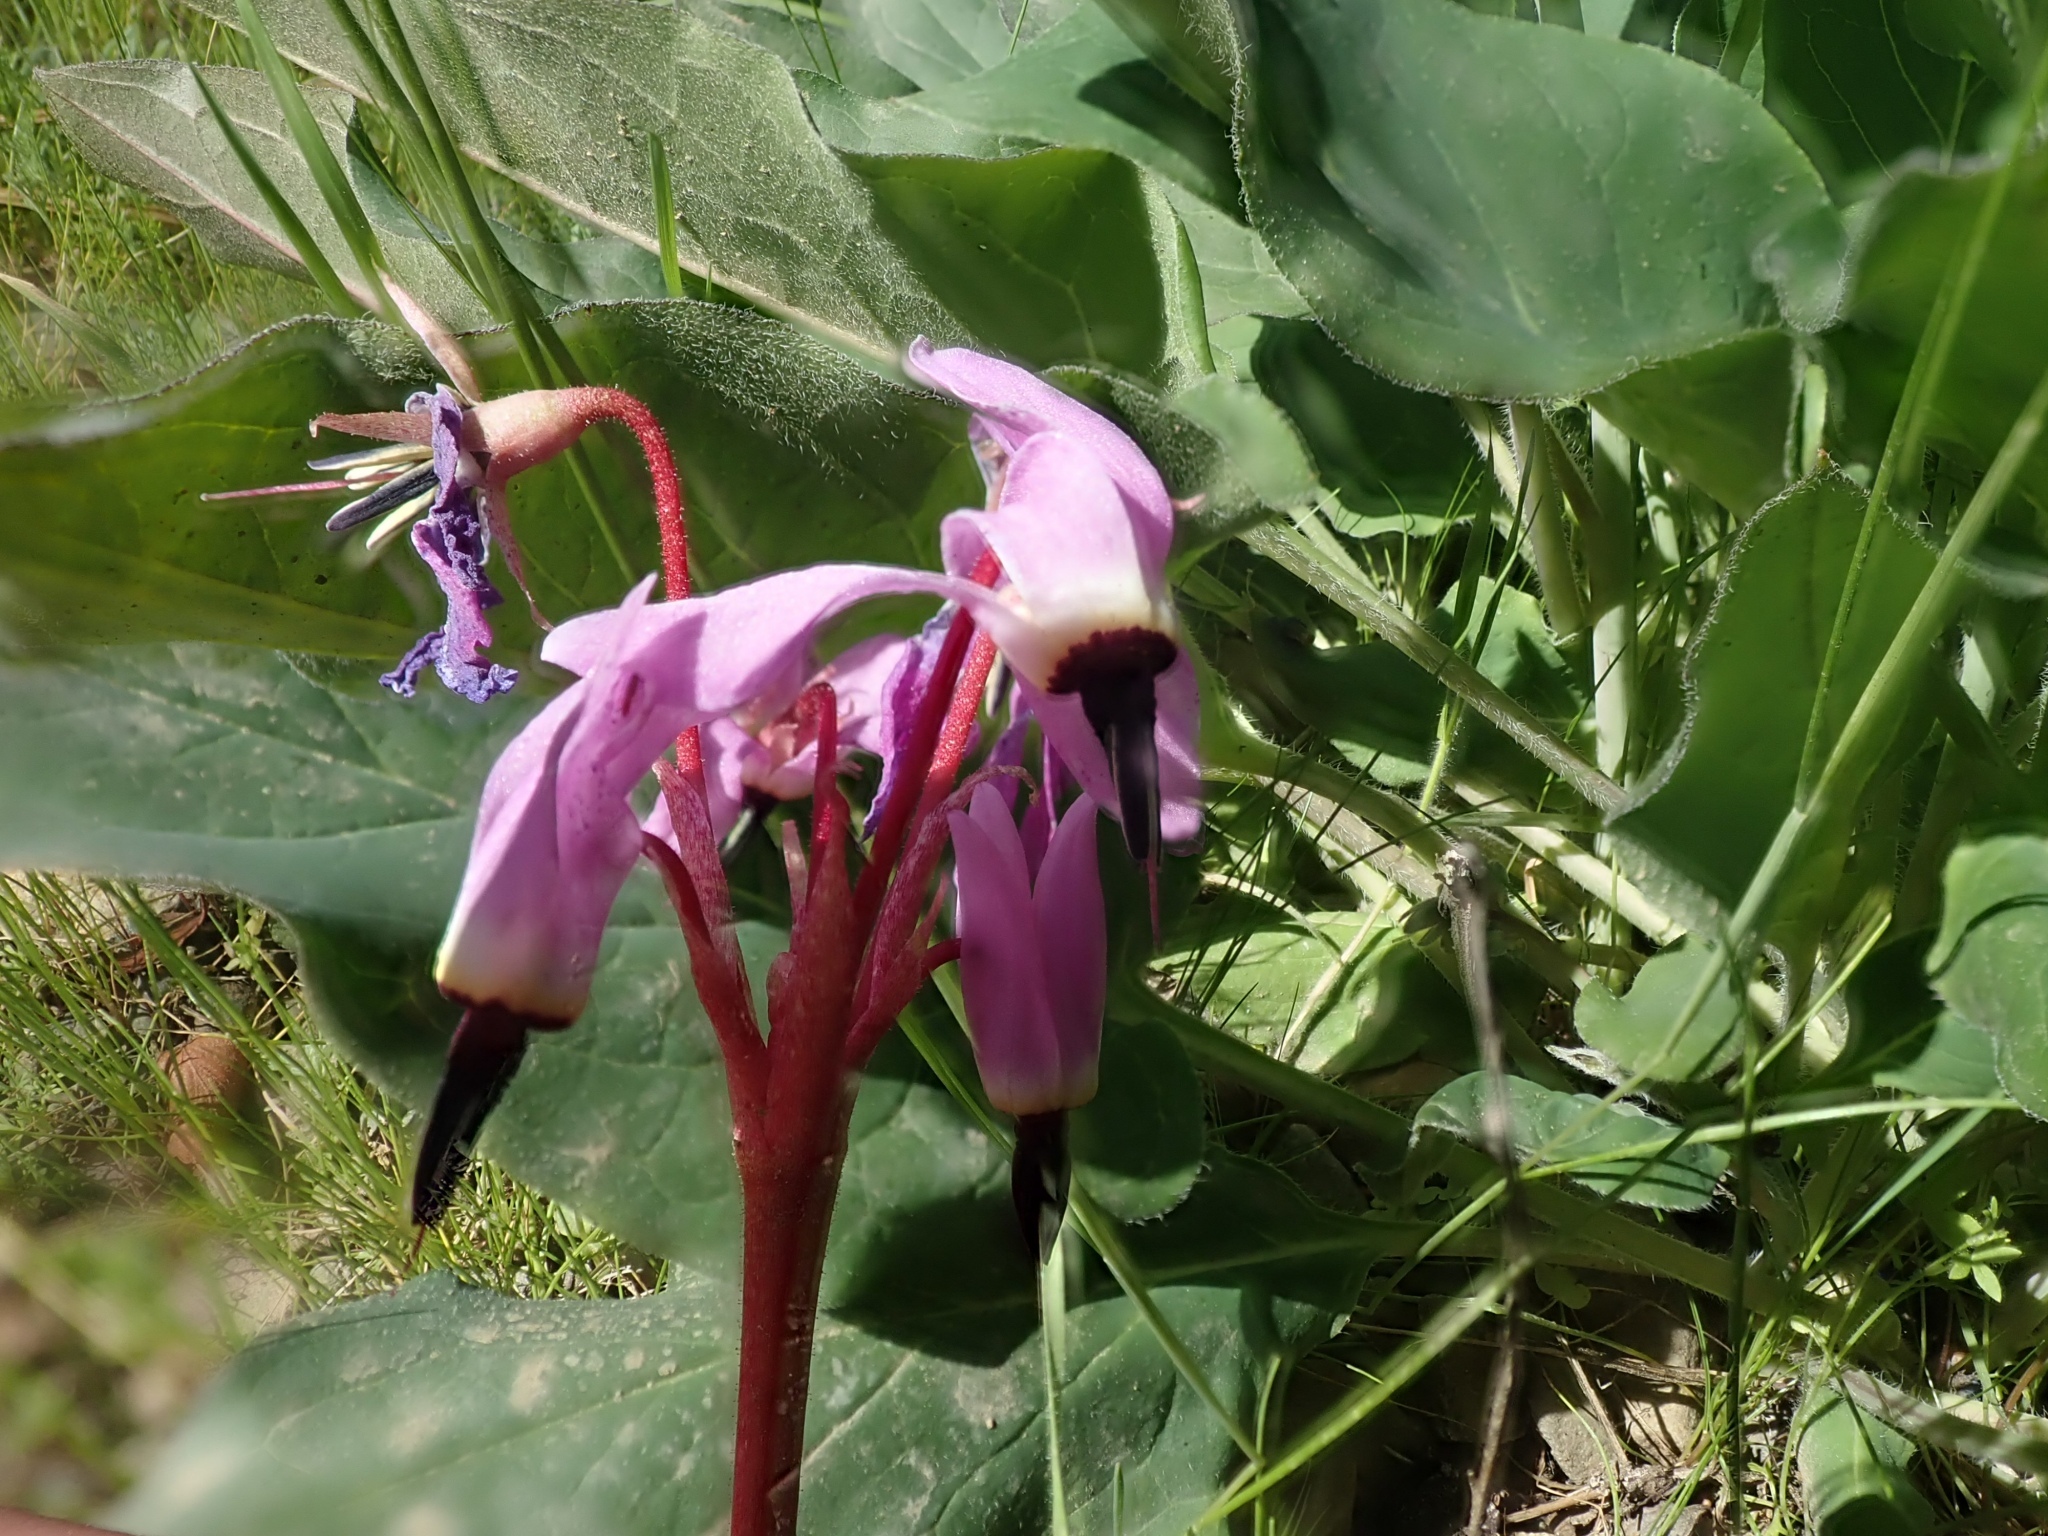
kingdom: Plantae
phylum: Tracheophyta
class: Magnoliopsida
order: Ericales
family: Primulaceae
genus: Dodecatheon
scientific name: Dodecatheon hendersonii
